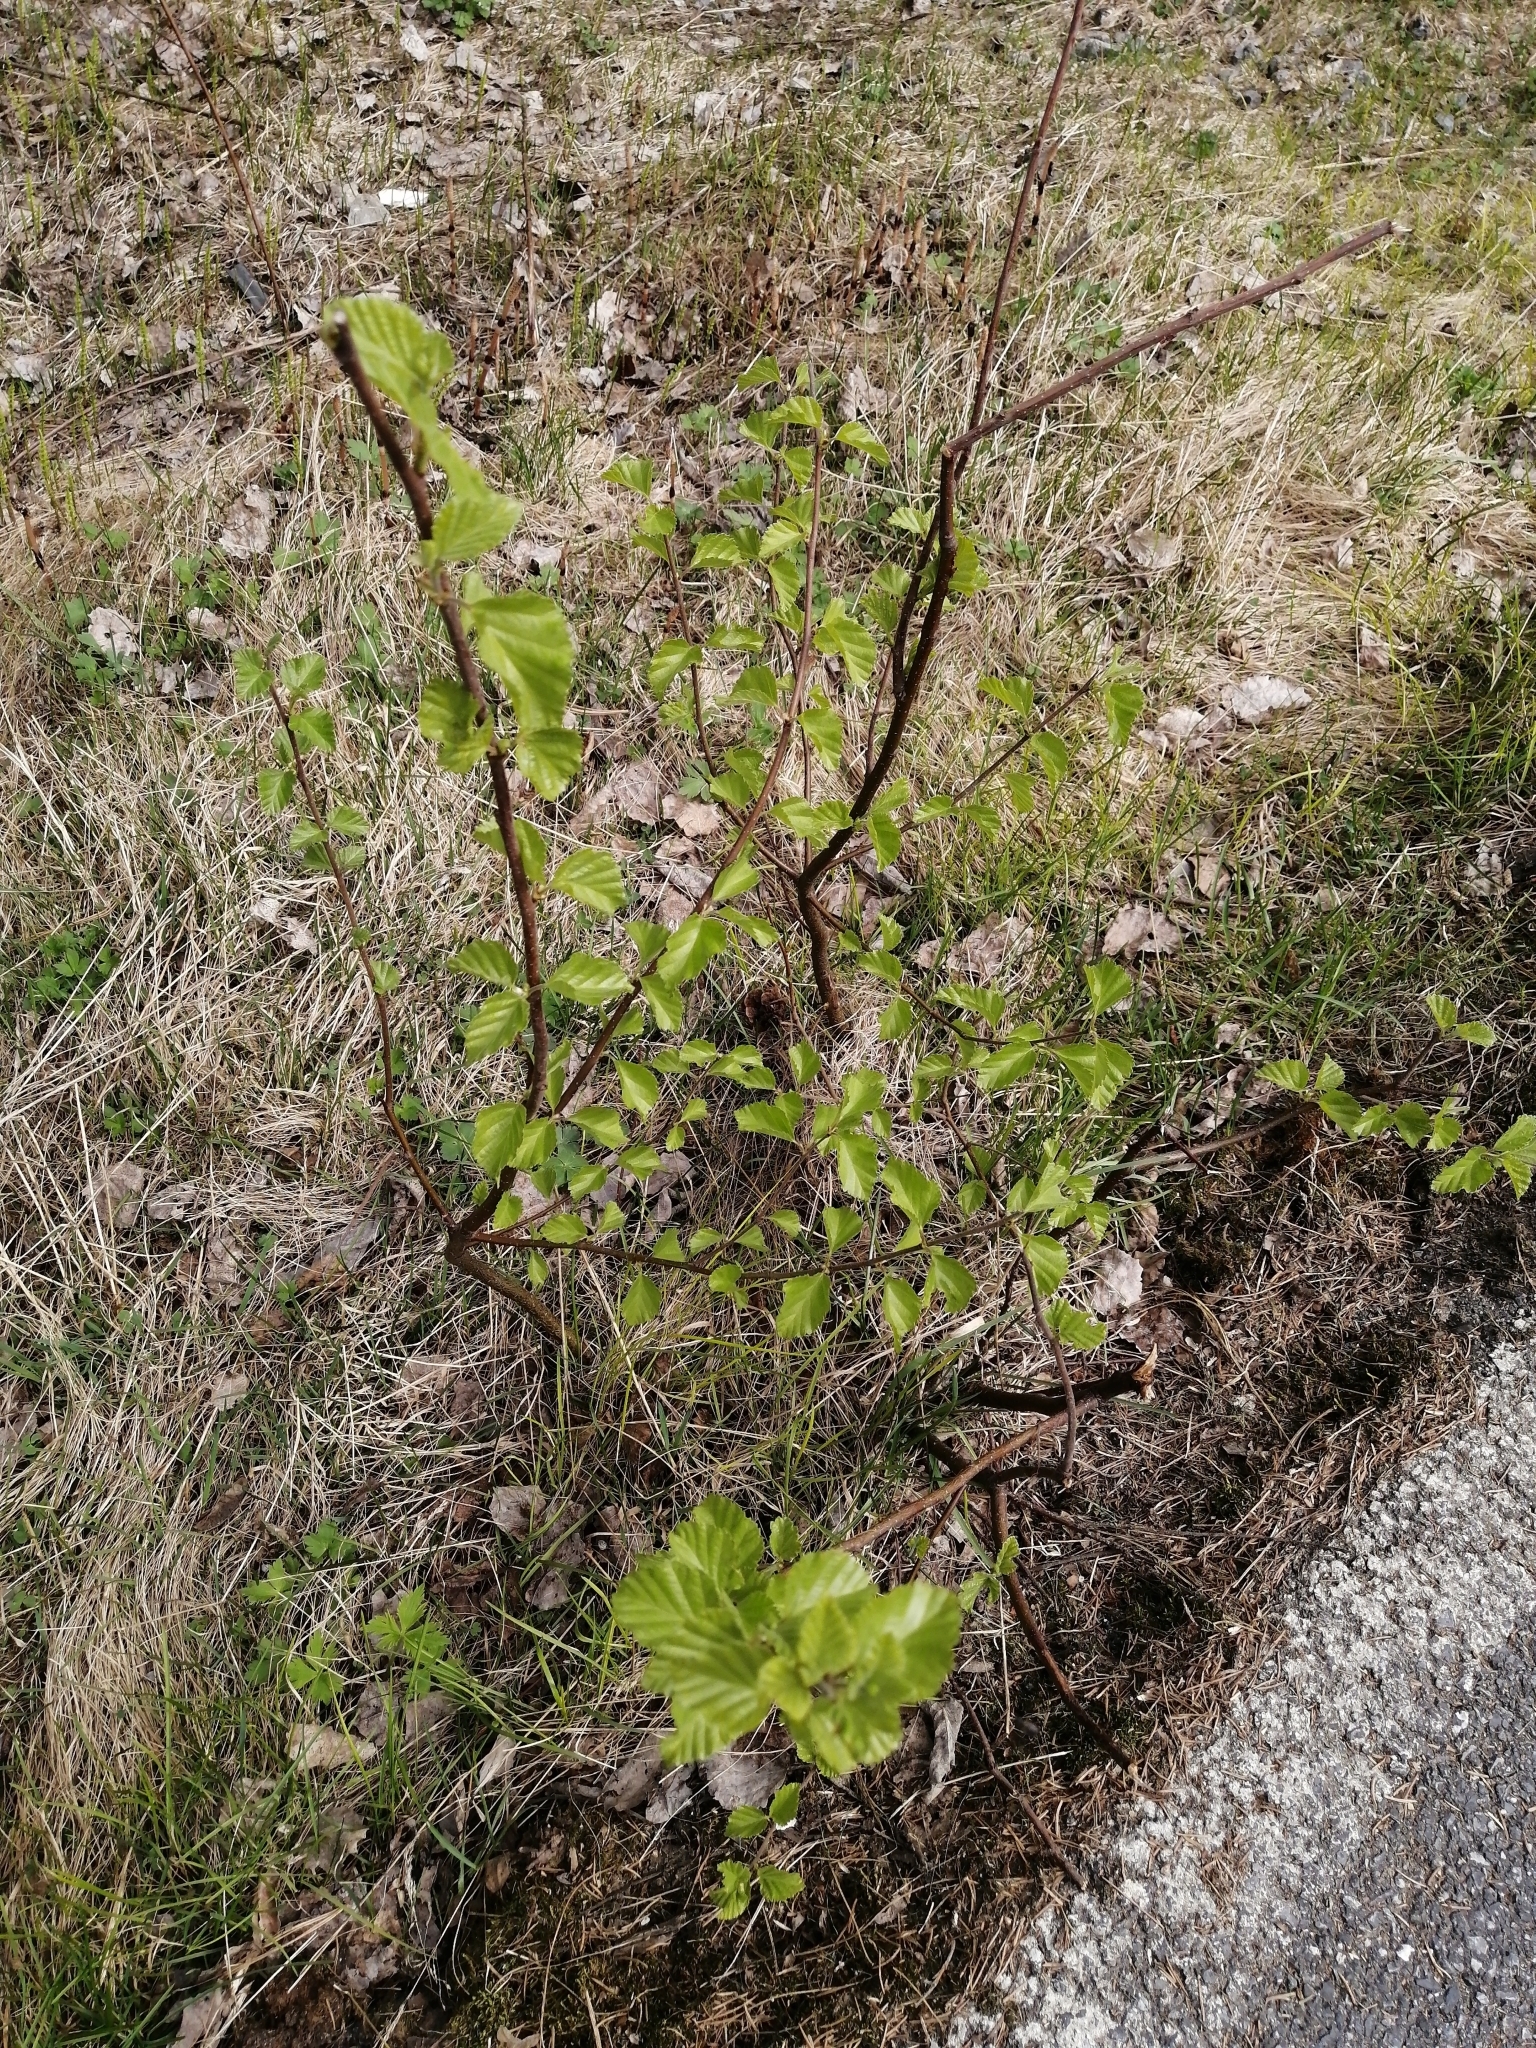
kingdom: Plantae
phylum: Tracheophyta
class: Magnoliopsida
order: Fagales
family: Betulaceae
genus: Betula
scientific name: Betula pubescens
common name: Downy birch
